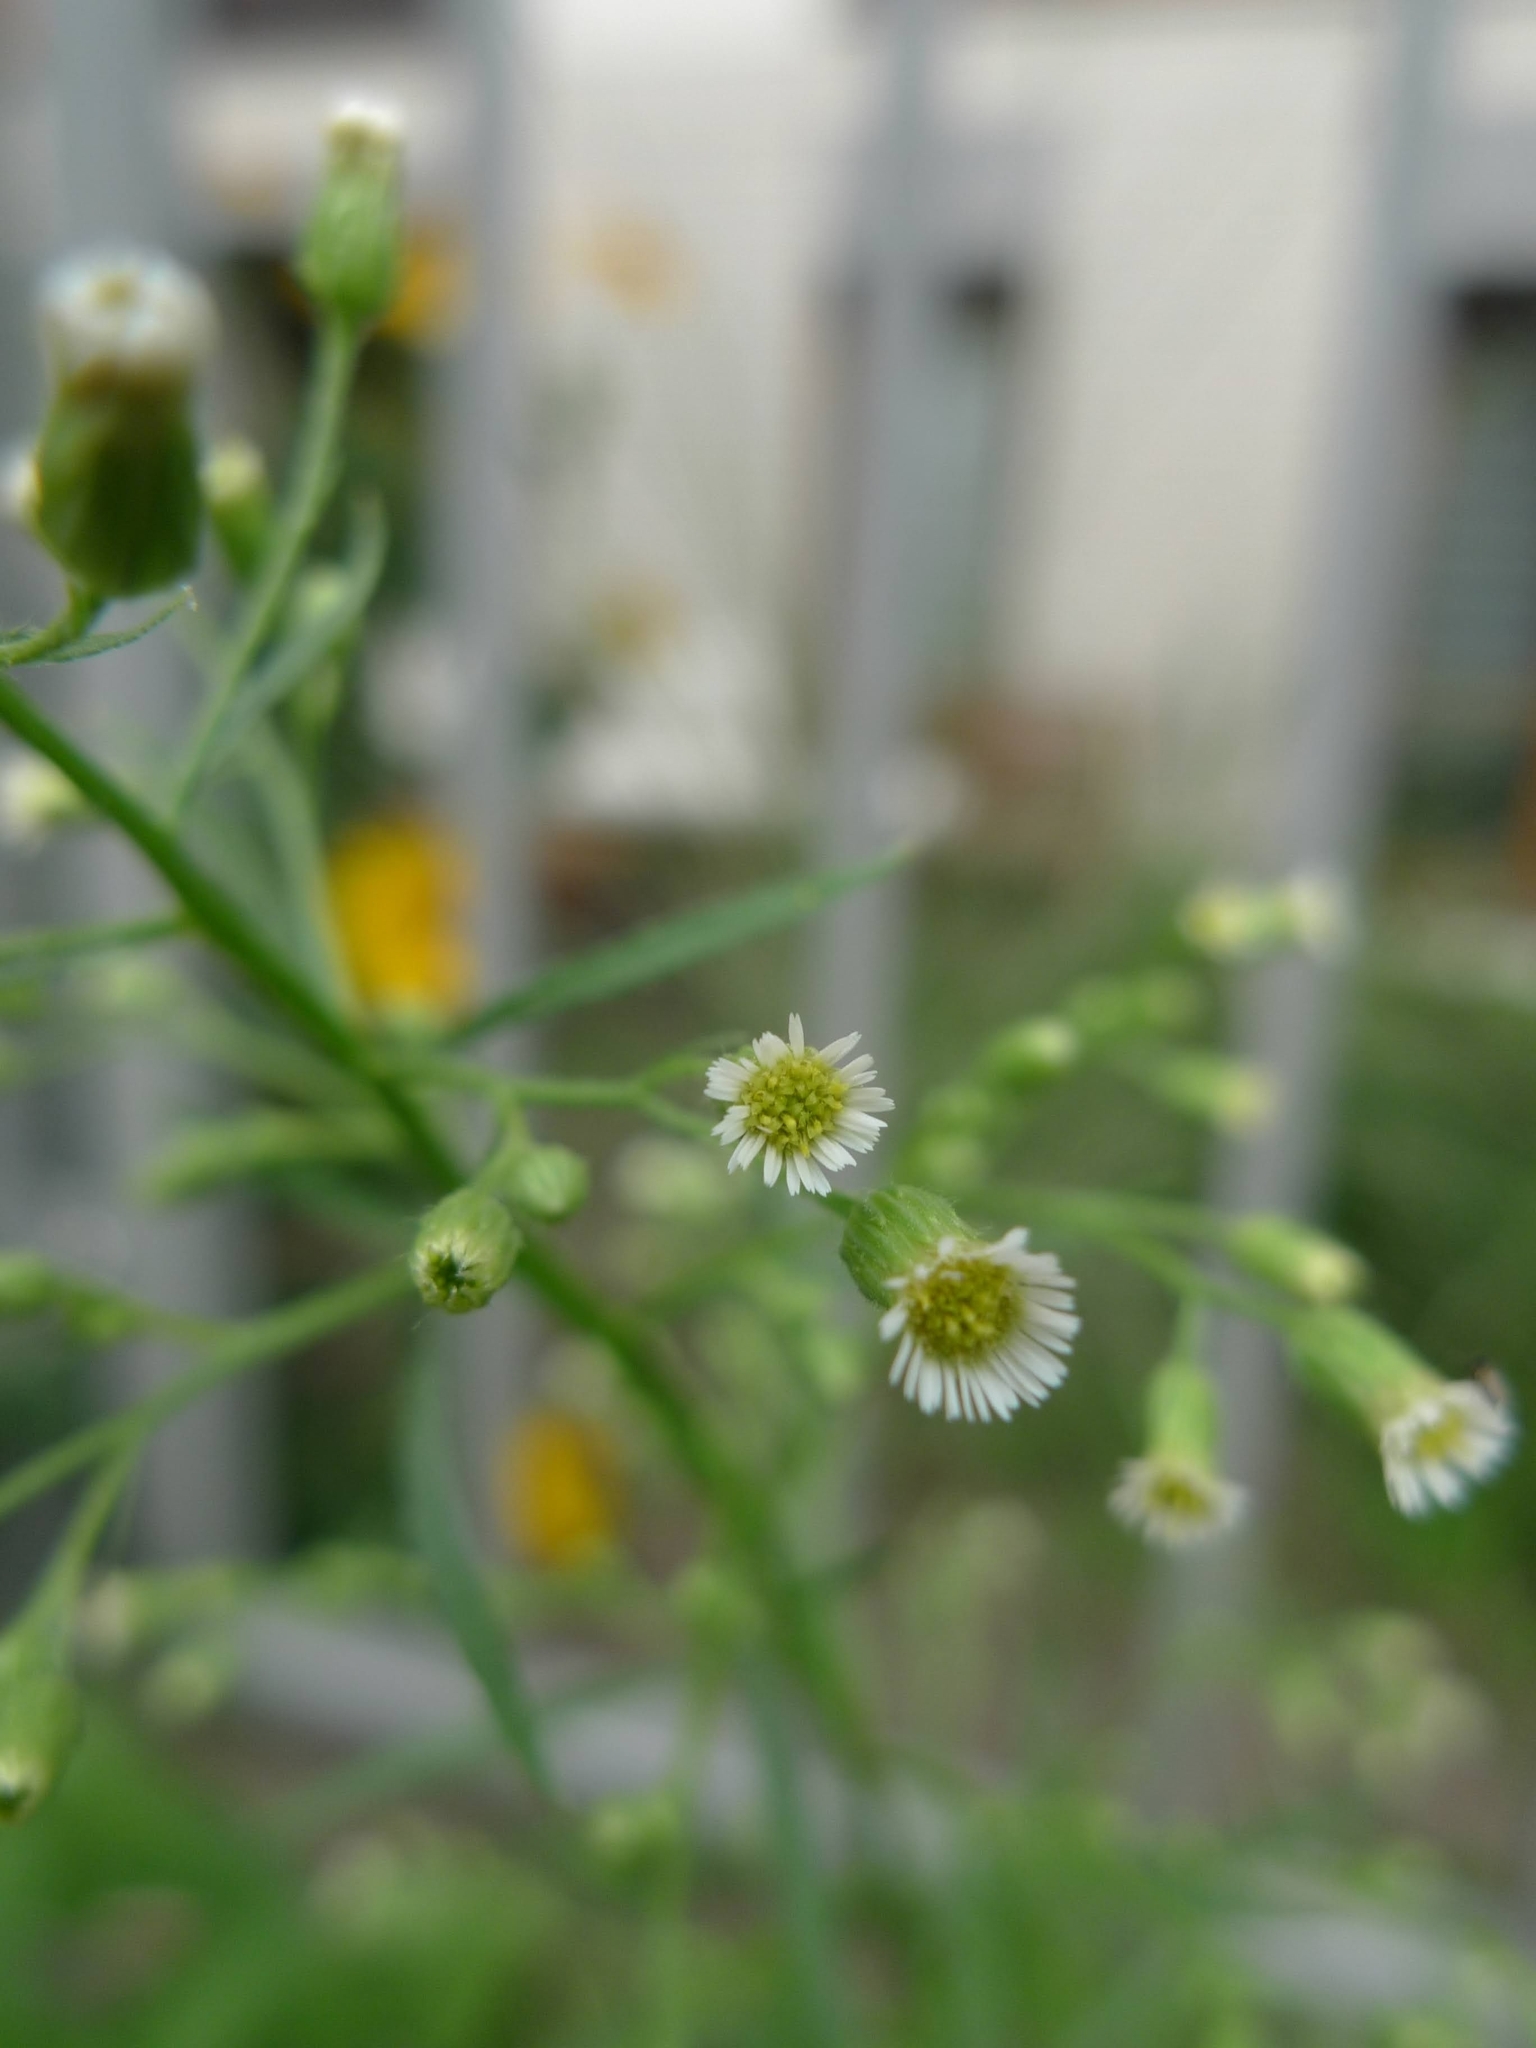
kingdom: Plantae
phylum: Tracheophyta
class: Magnoliopsida
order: Asterales
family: Asteraceae
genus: Erigeron
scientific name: Erigeron canadensis
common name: Canadian fleabane
